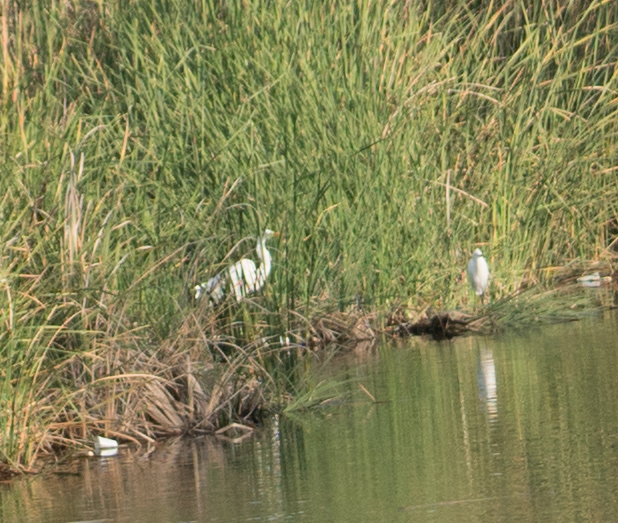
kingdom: Animalia
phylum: Chordata
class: Aves
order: Pelecaniformes
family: Ardeidae
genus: Ardea
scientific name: Ardea alba
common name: Great egret
